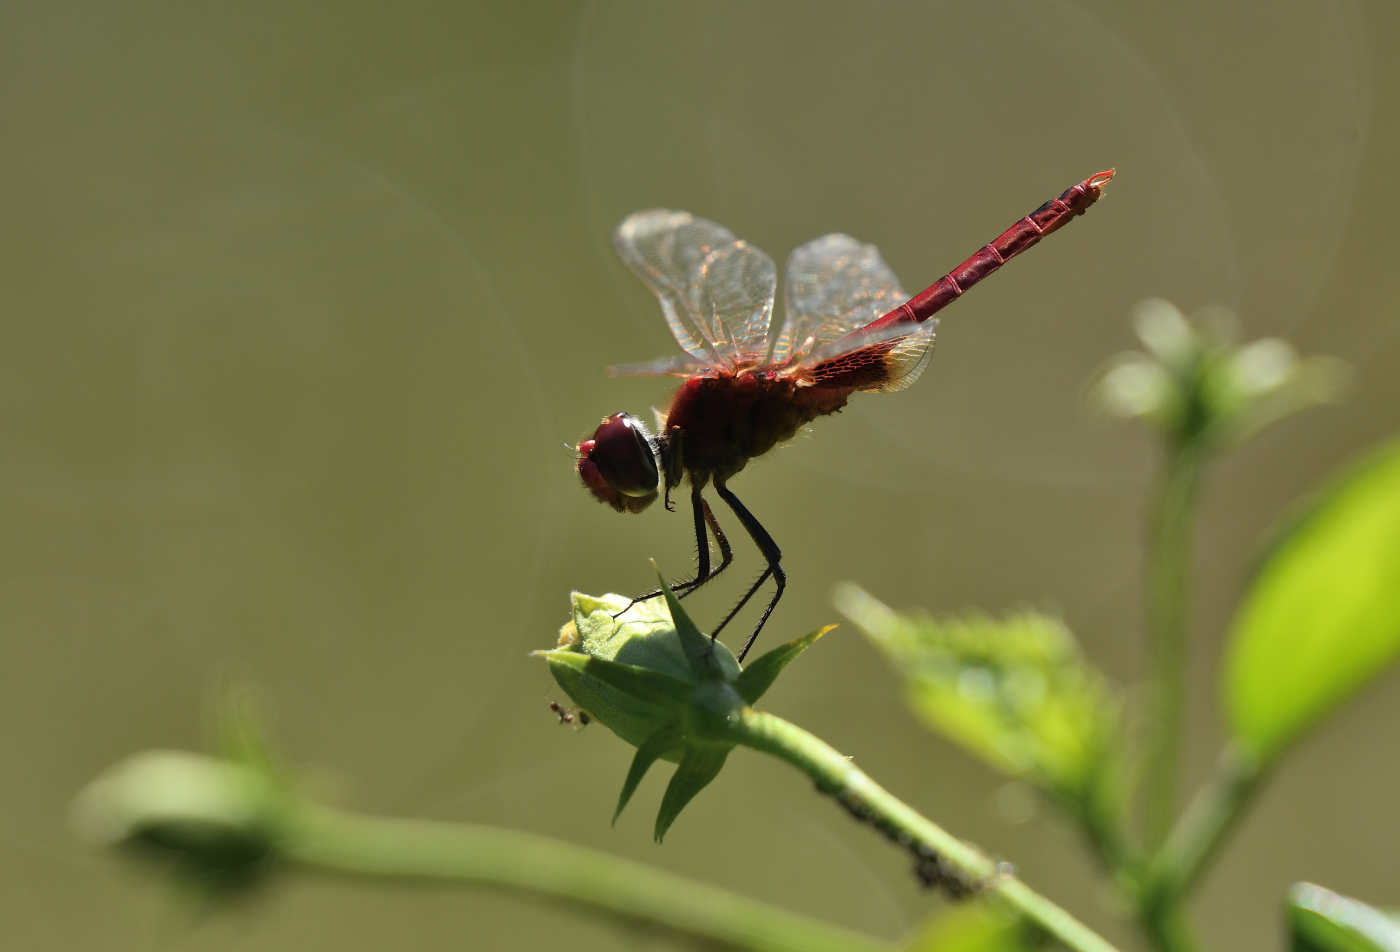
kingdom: Animalia
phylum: Arthropoda
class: Insecta
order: Odonata
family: Libellulidae
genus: Urothemis
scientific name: Urothemis signata
